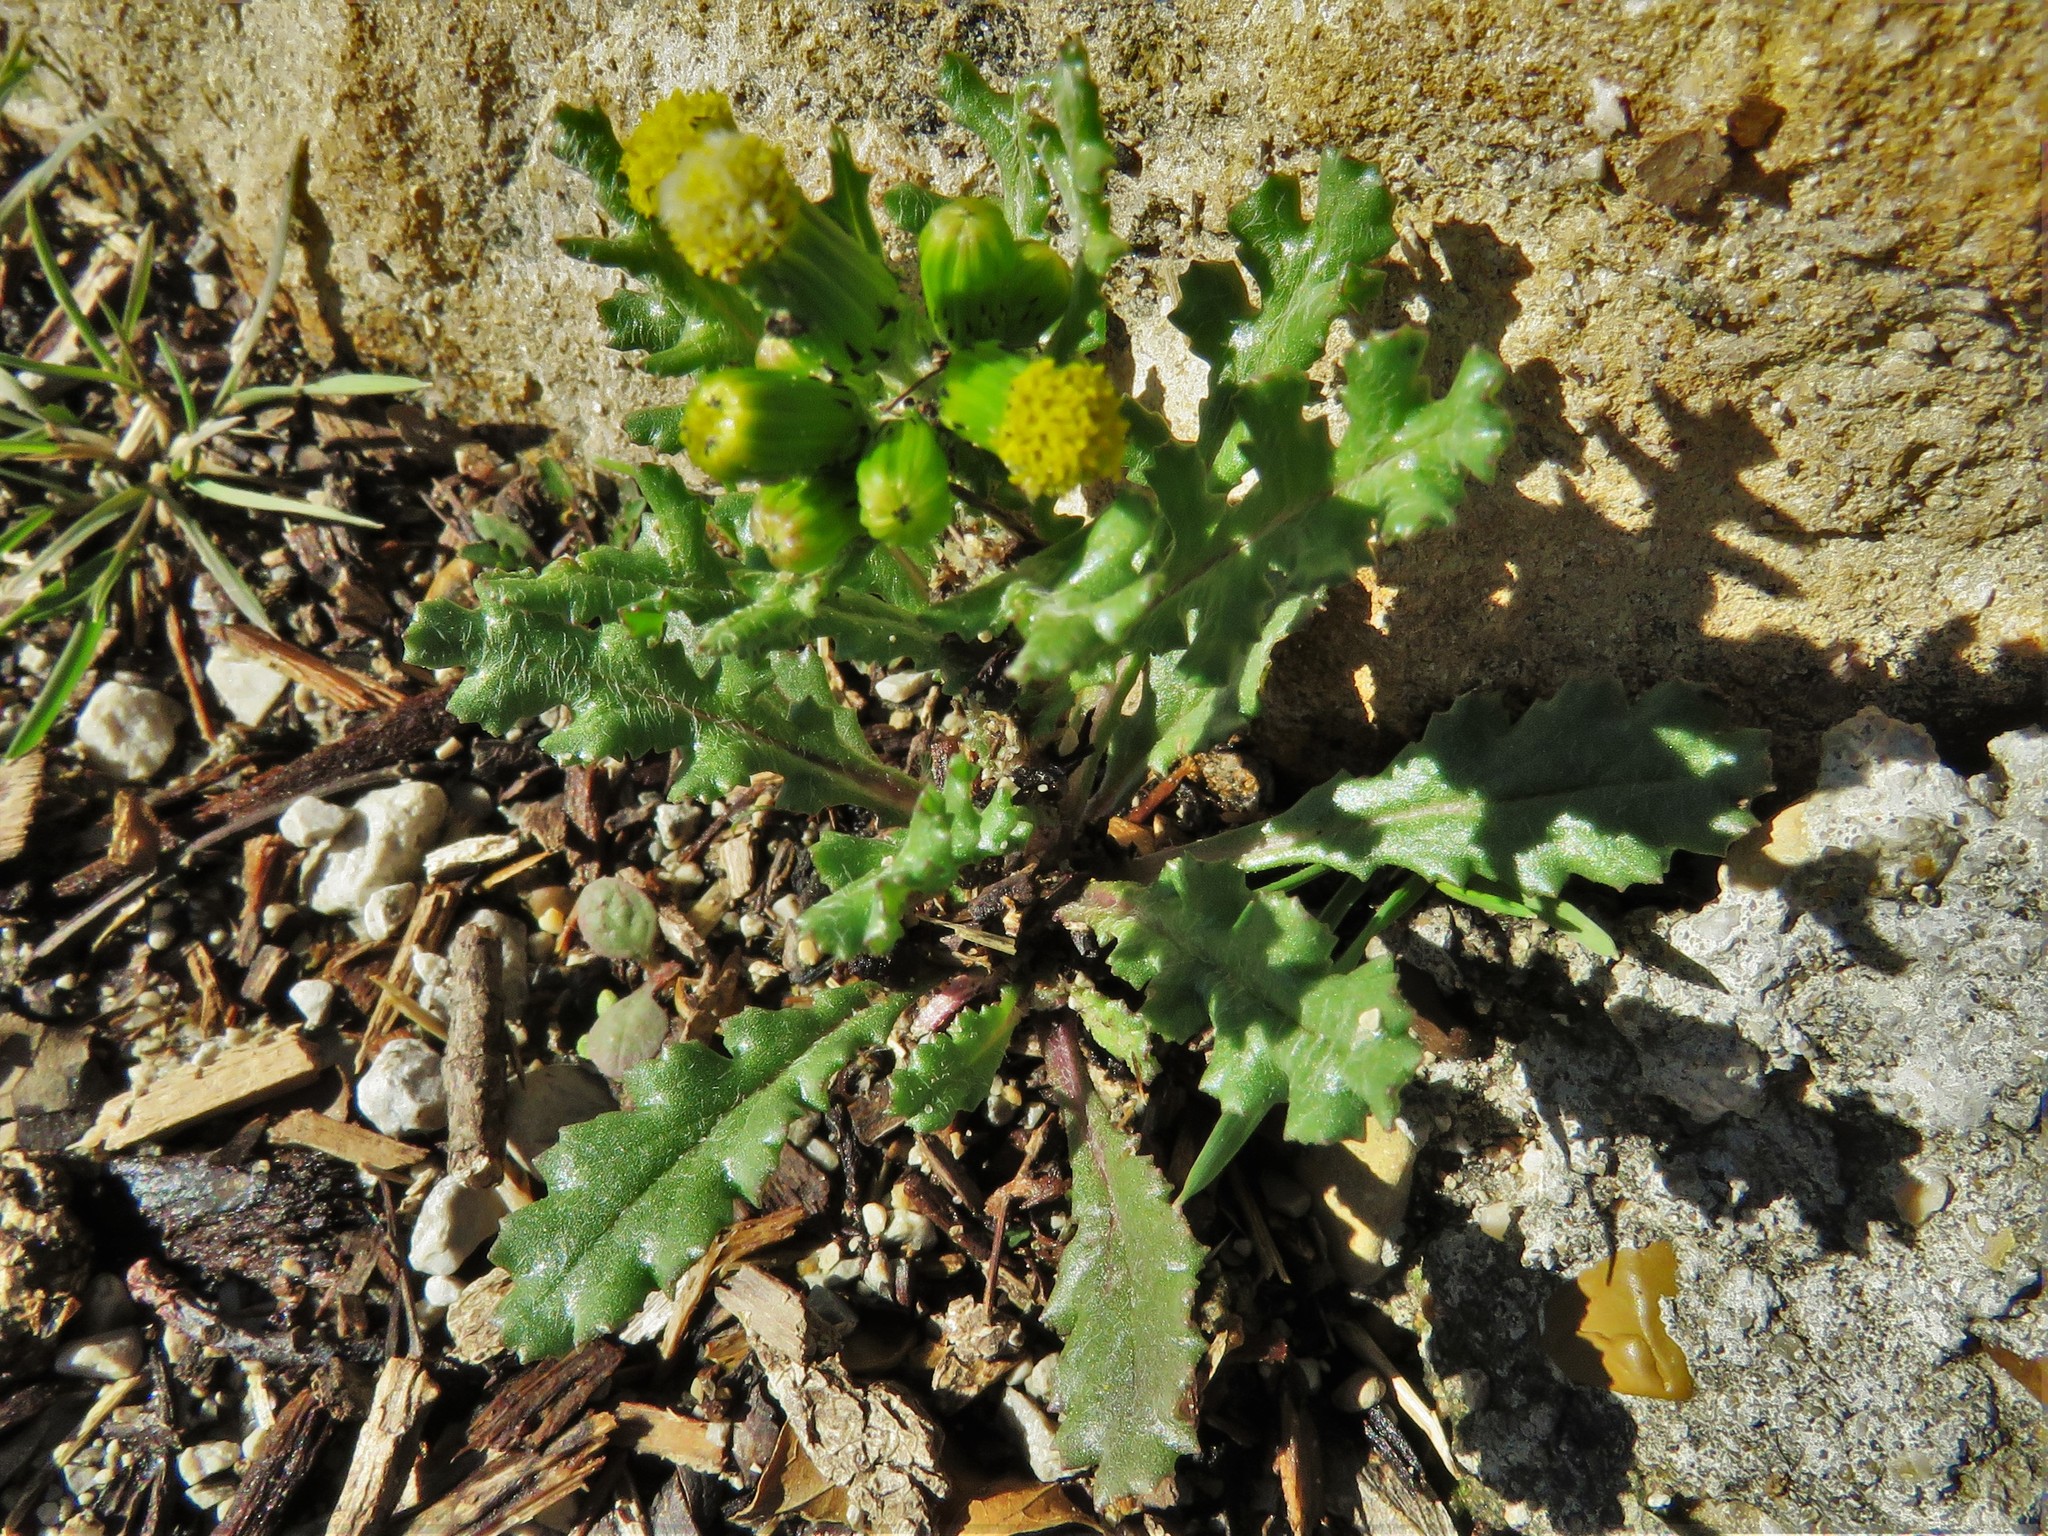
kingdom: Plantae
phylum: Tracheophyta
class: Magnoliopsida
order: Asterales
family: Asteraceae
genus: Senecio
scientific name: Senecio vulgaris
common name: Old-man-in-the-spring
